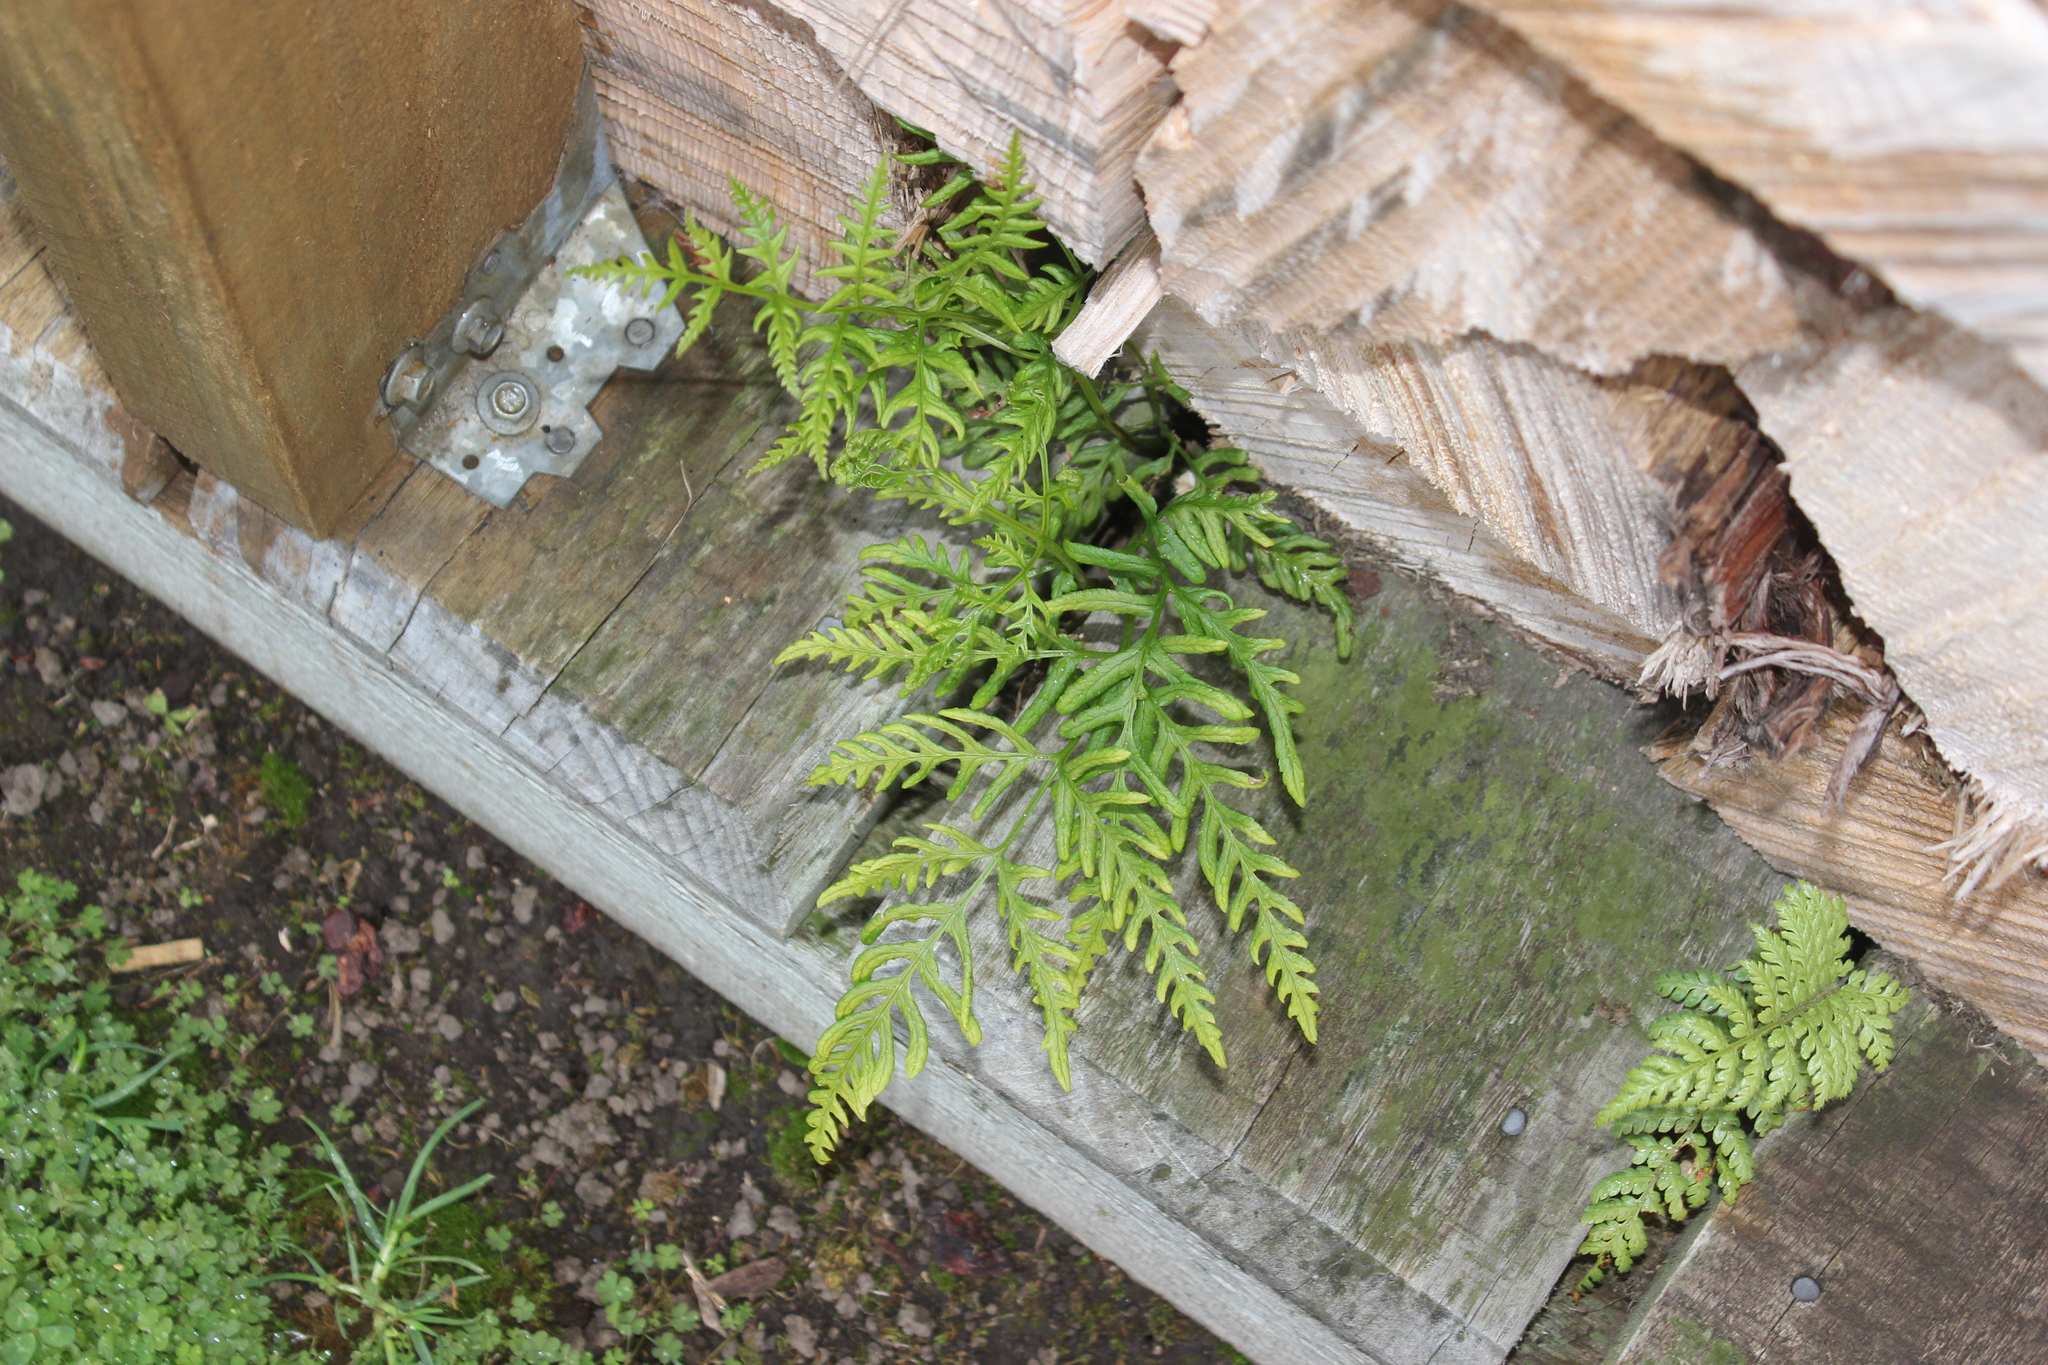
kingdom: Plantae
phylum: Tracheophyta
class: Polypodiopsida
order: Polypodiales
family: Pteridaceae
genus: Pteris
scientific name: Pteris tremula
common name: Australian brake
